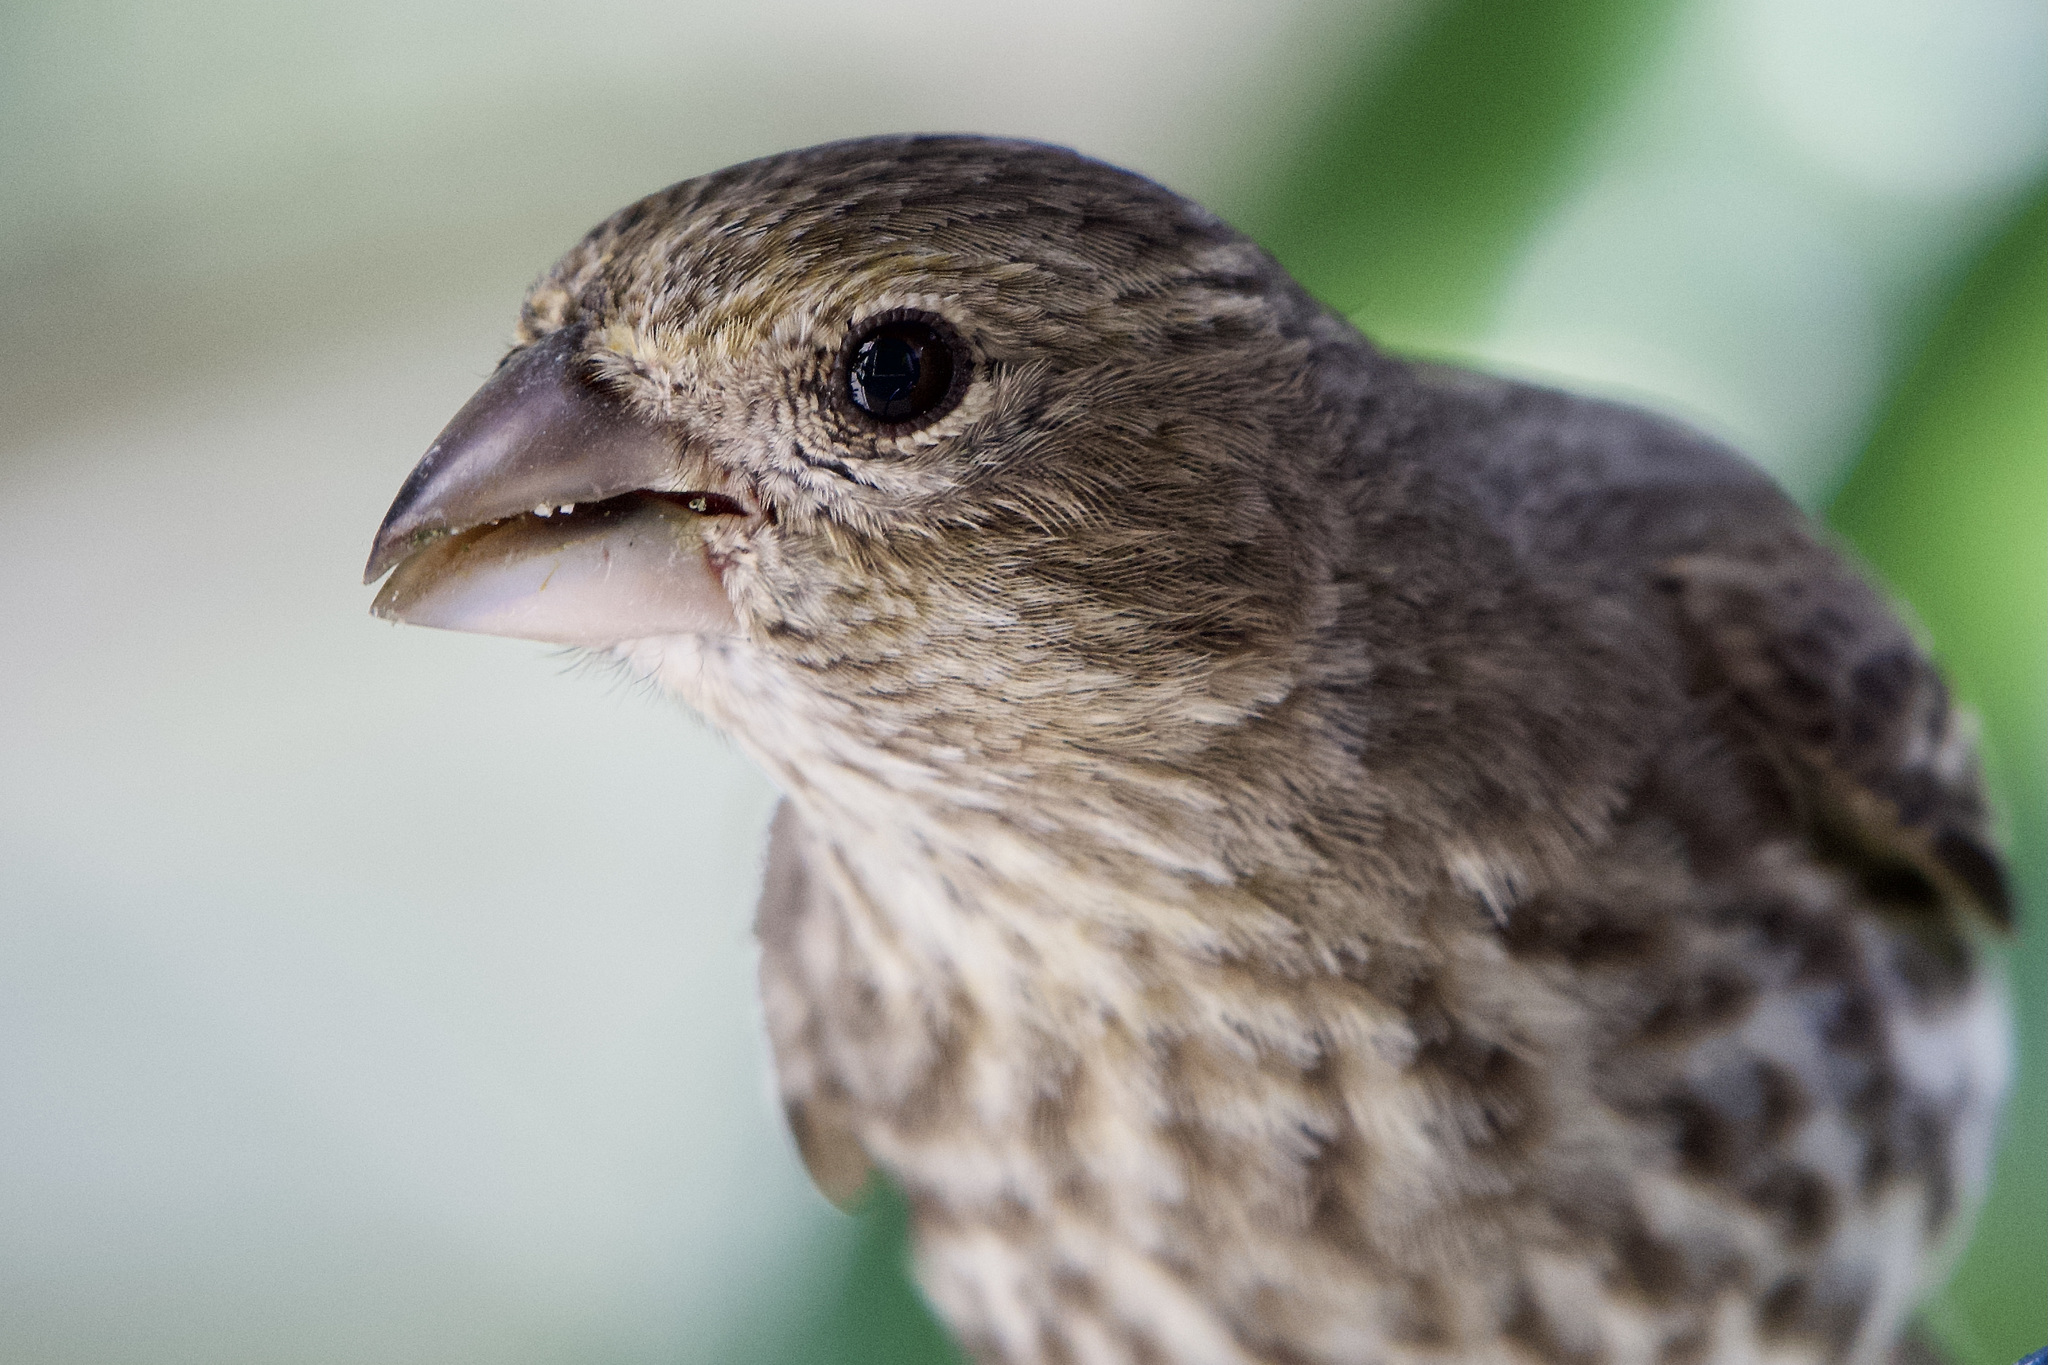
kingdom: Animalia
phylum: Chordata
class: Aves
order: Passeriformes
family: Fringillidae
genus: Haemorhous
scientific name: Haemorhous mexicanus
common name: House finch
